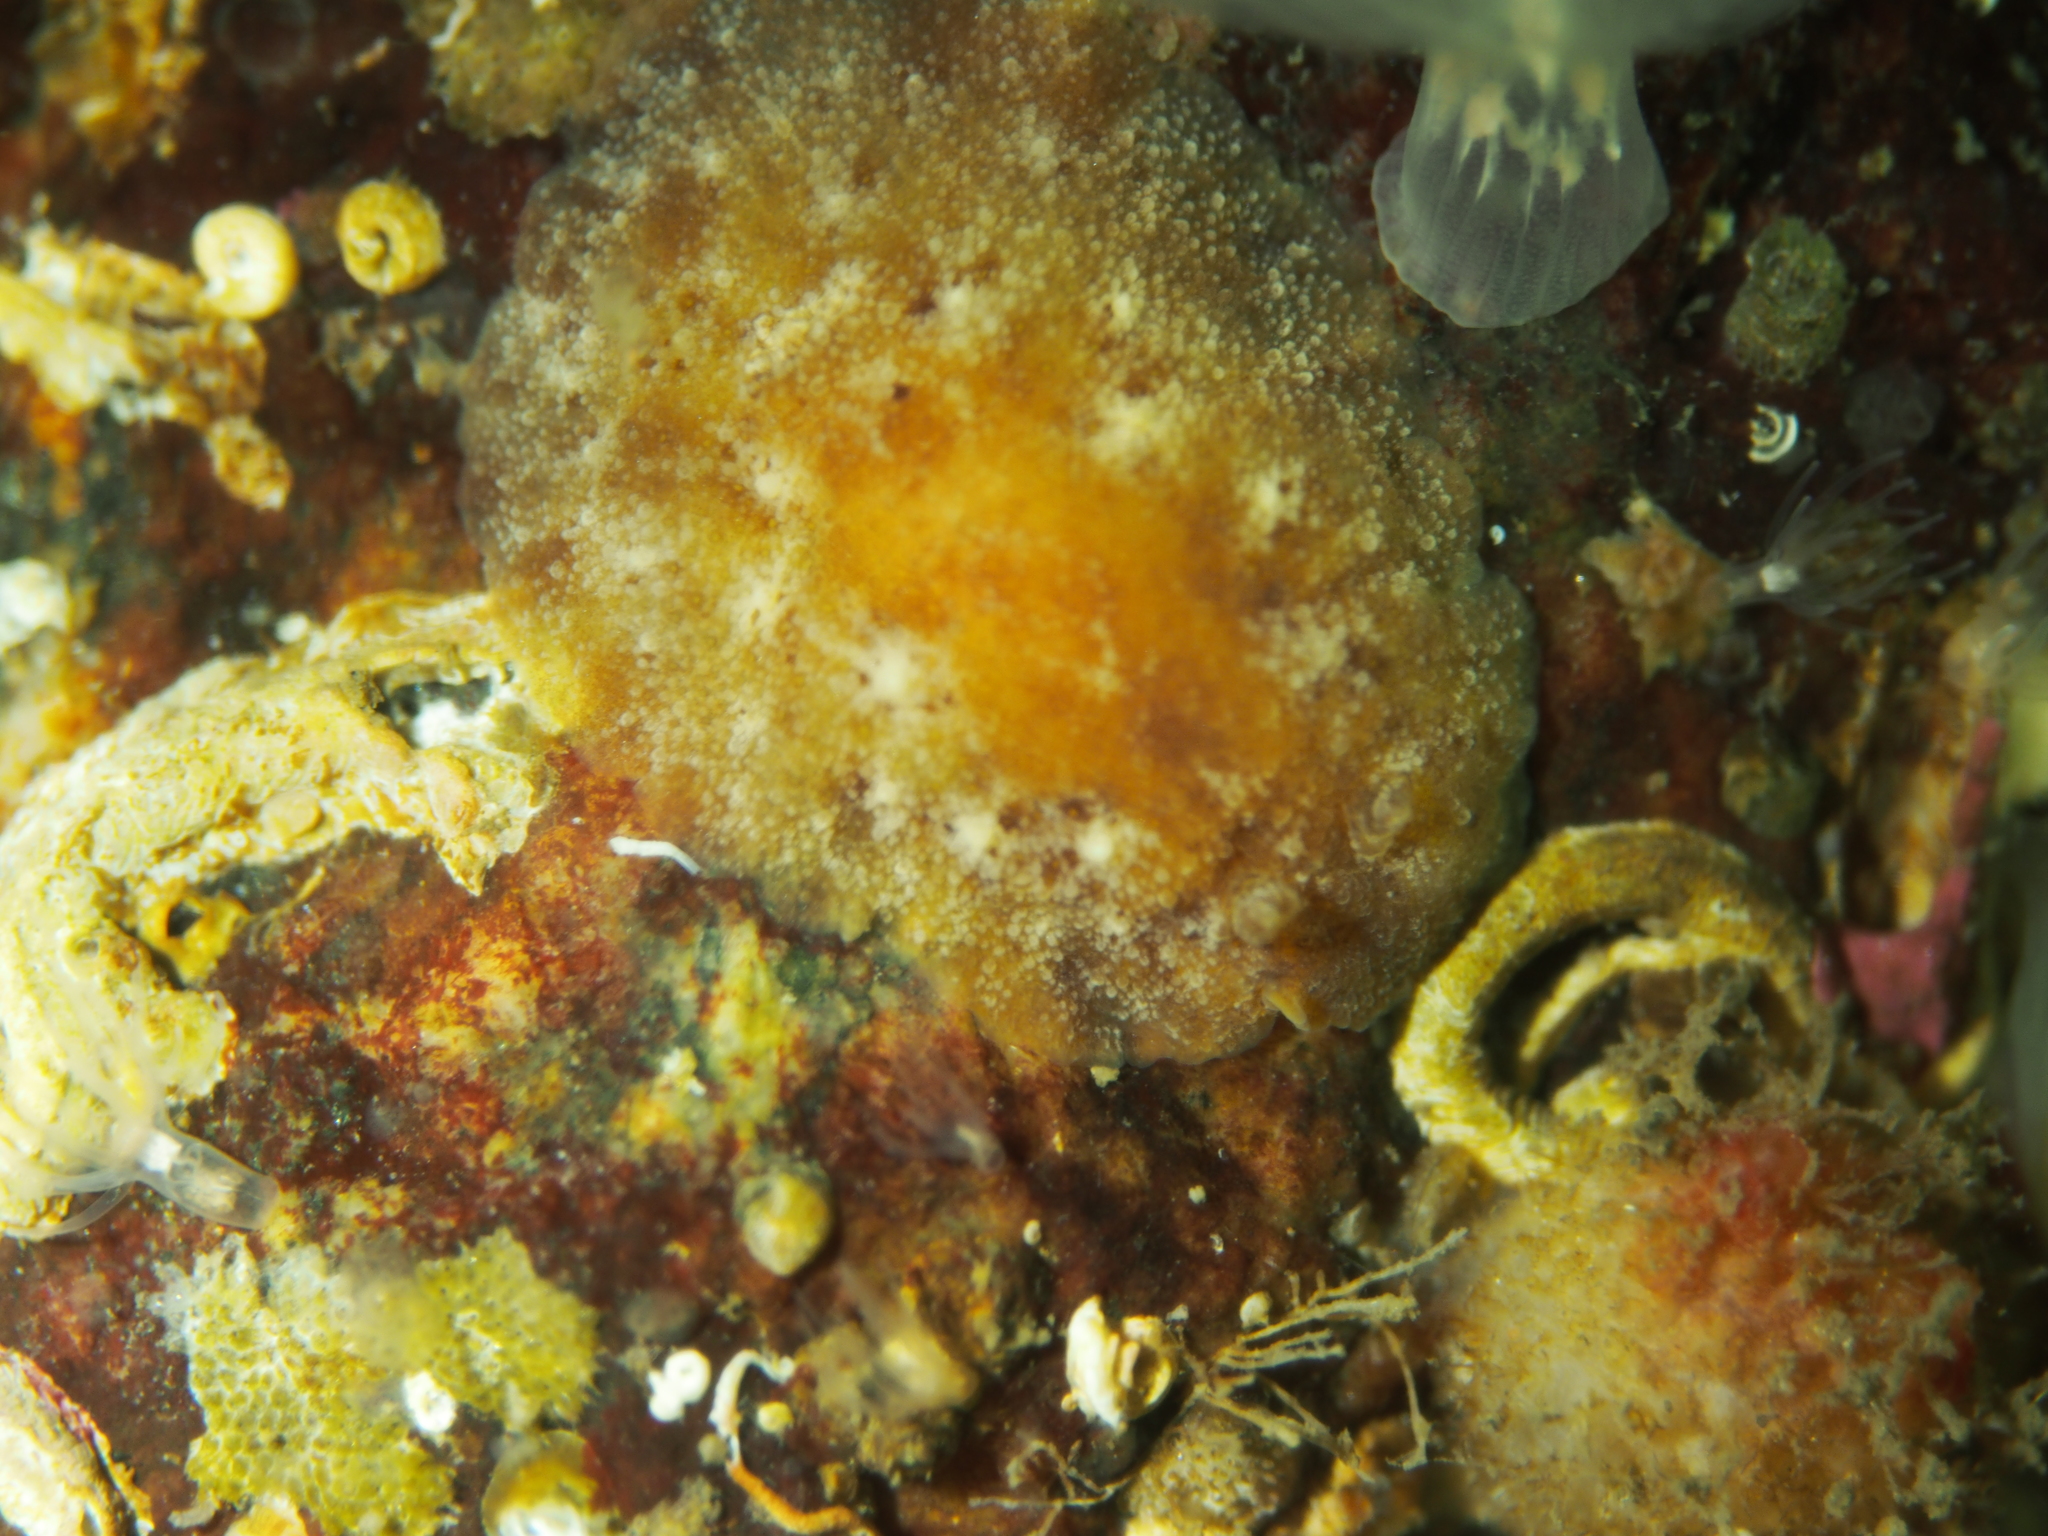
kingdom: Animalia
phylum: Mollusca
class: Gastropoda
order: Nudibranchia
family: Discodorididae
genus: Geitodoris
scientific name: Geitodoris planata
